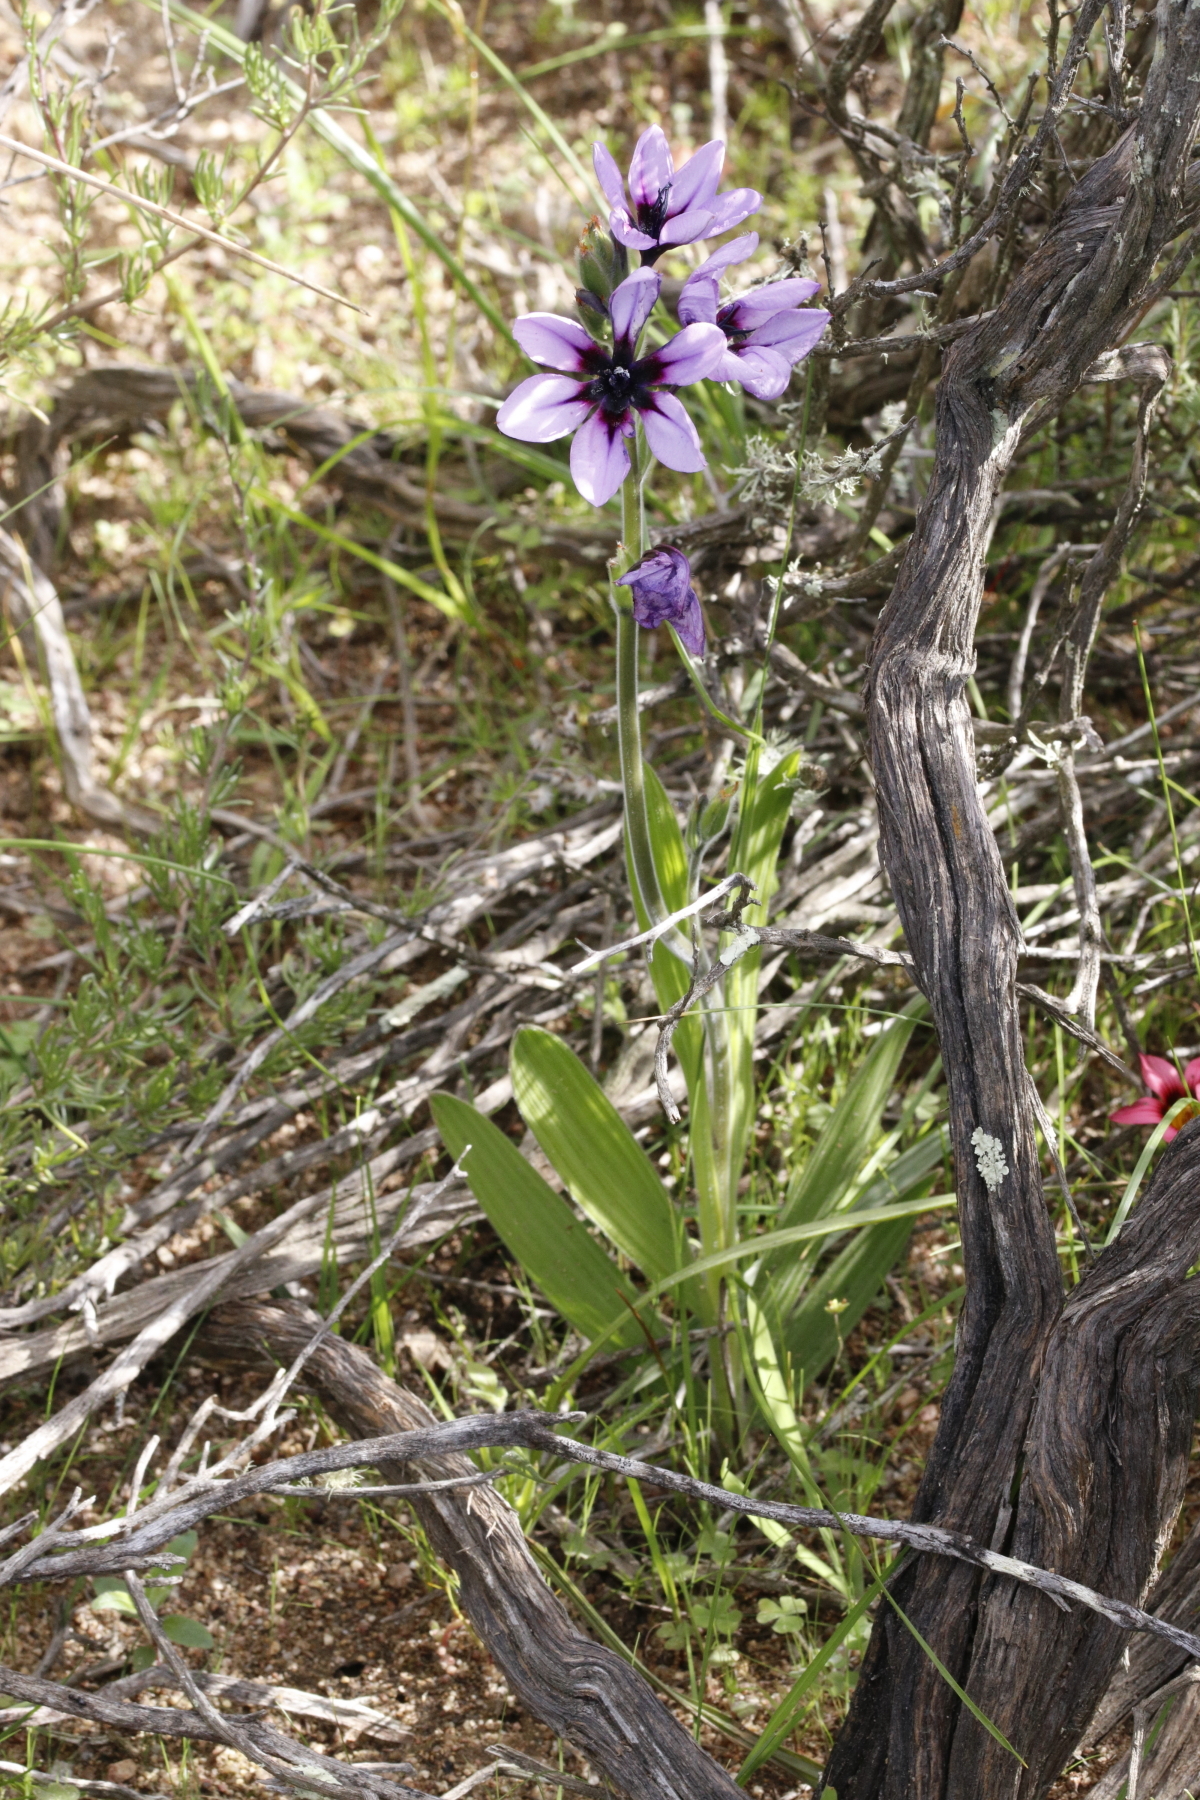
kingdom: Plantae
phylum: Tracheophyta
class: Liliopsida
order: Asparagales
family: Iridaceae
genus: Babiana
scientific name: Babiana melanops
